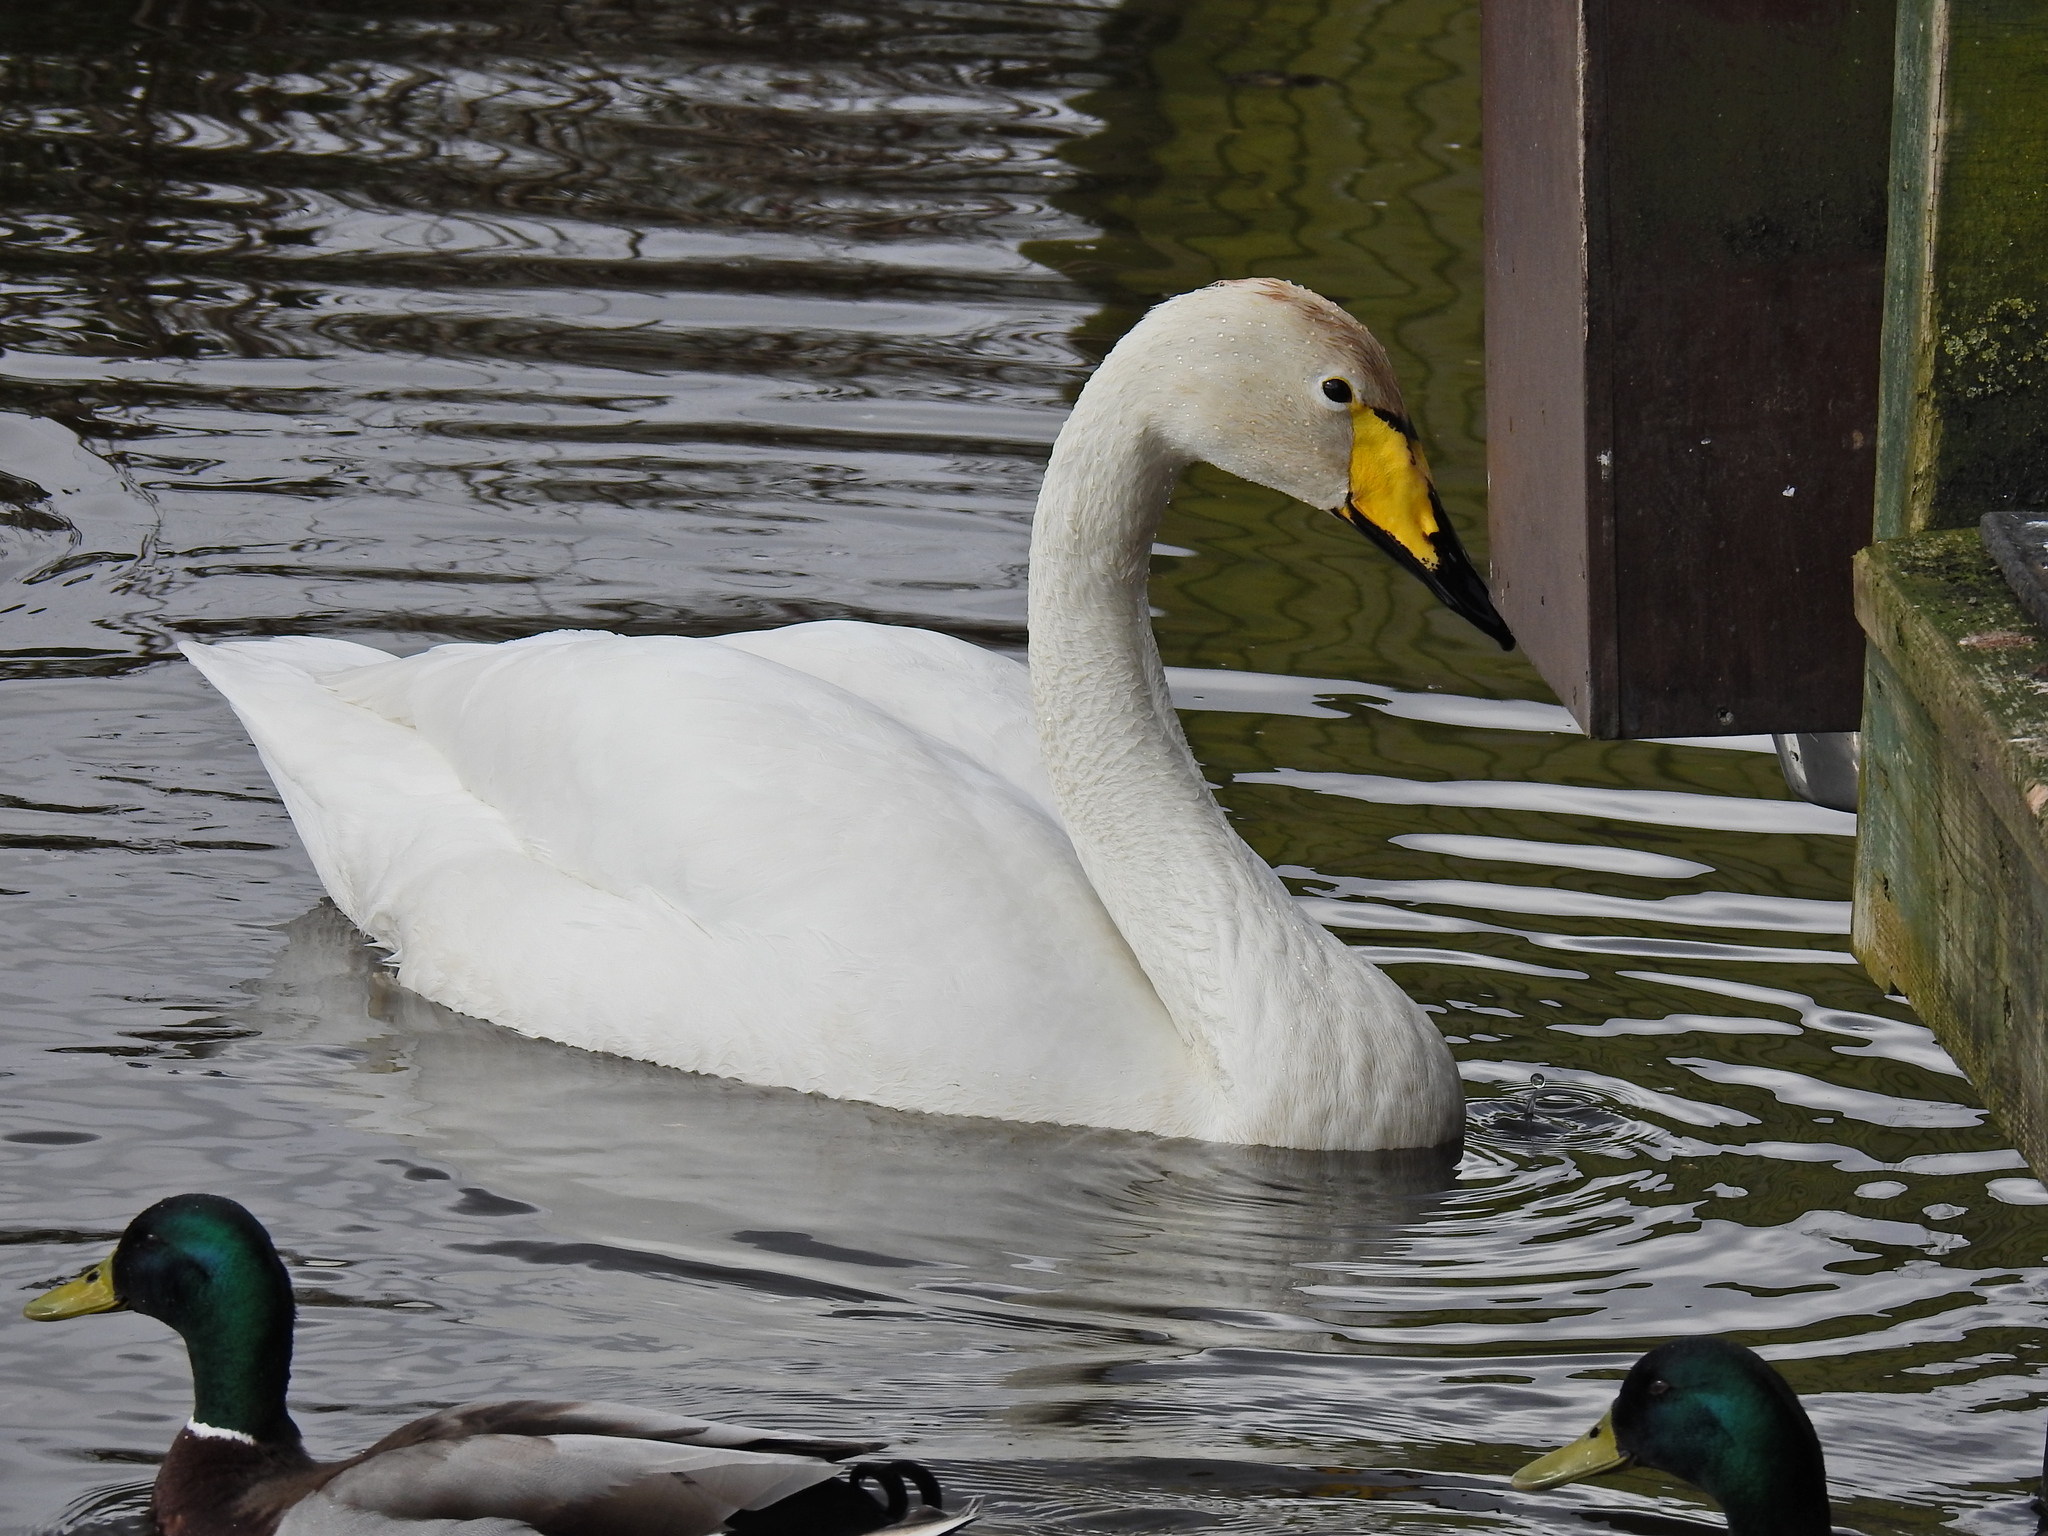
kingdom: Animalia
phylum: Chordata
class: Aves
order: Anseriformes
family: Anatidae
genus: Cygnus
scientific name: Cygnus cygnus
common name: Whooper swan
